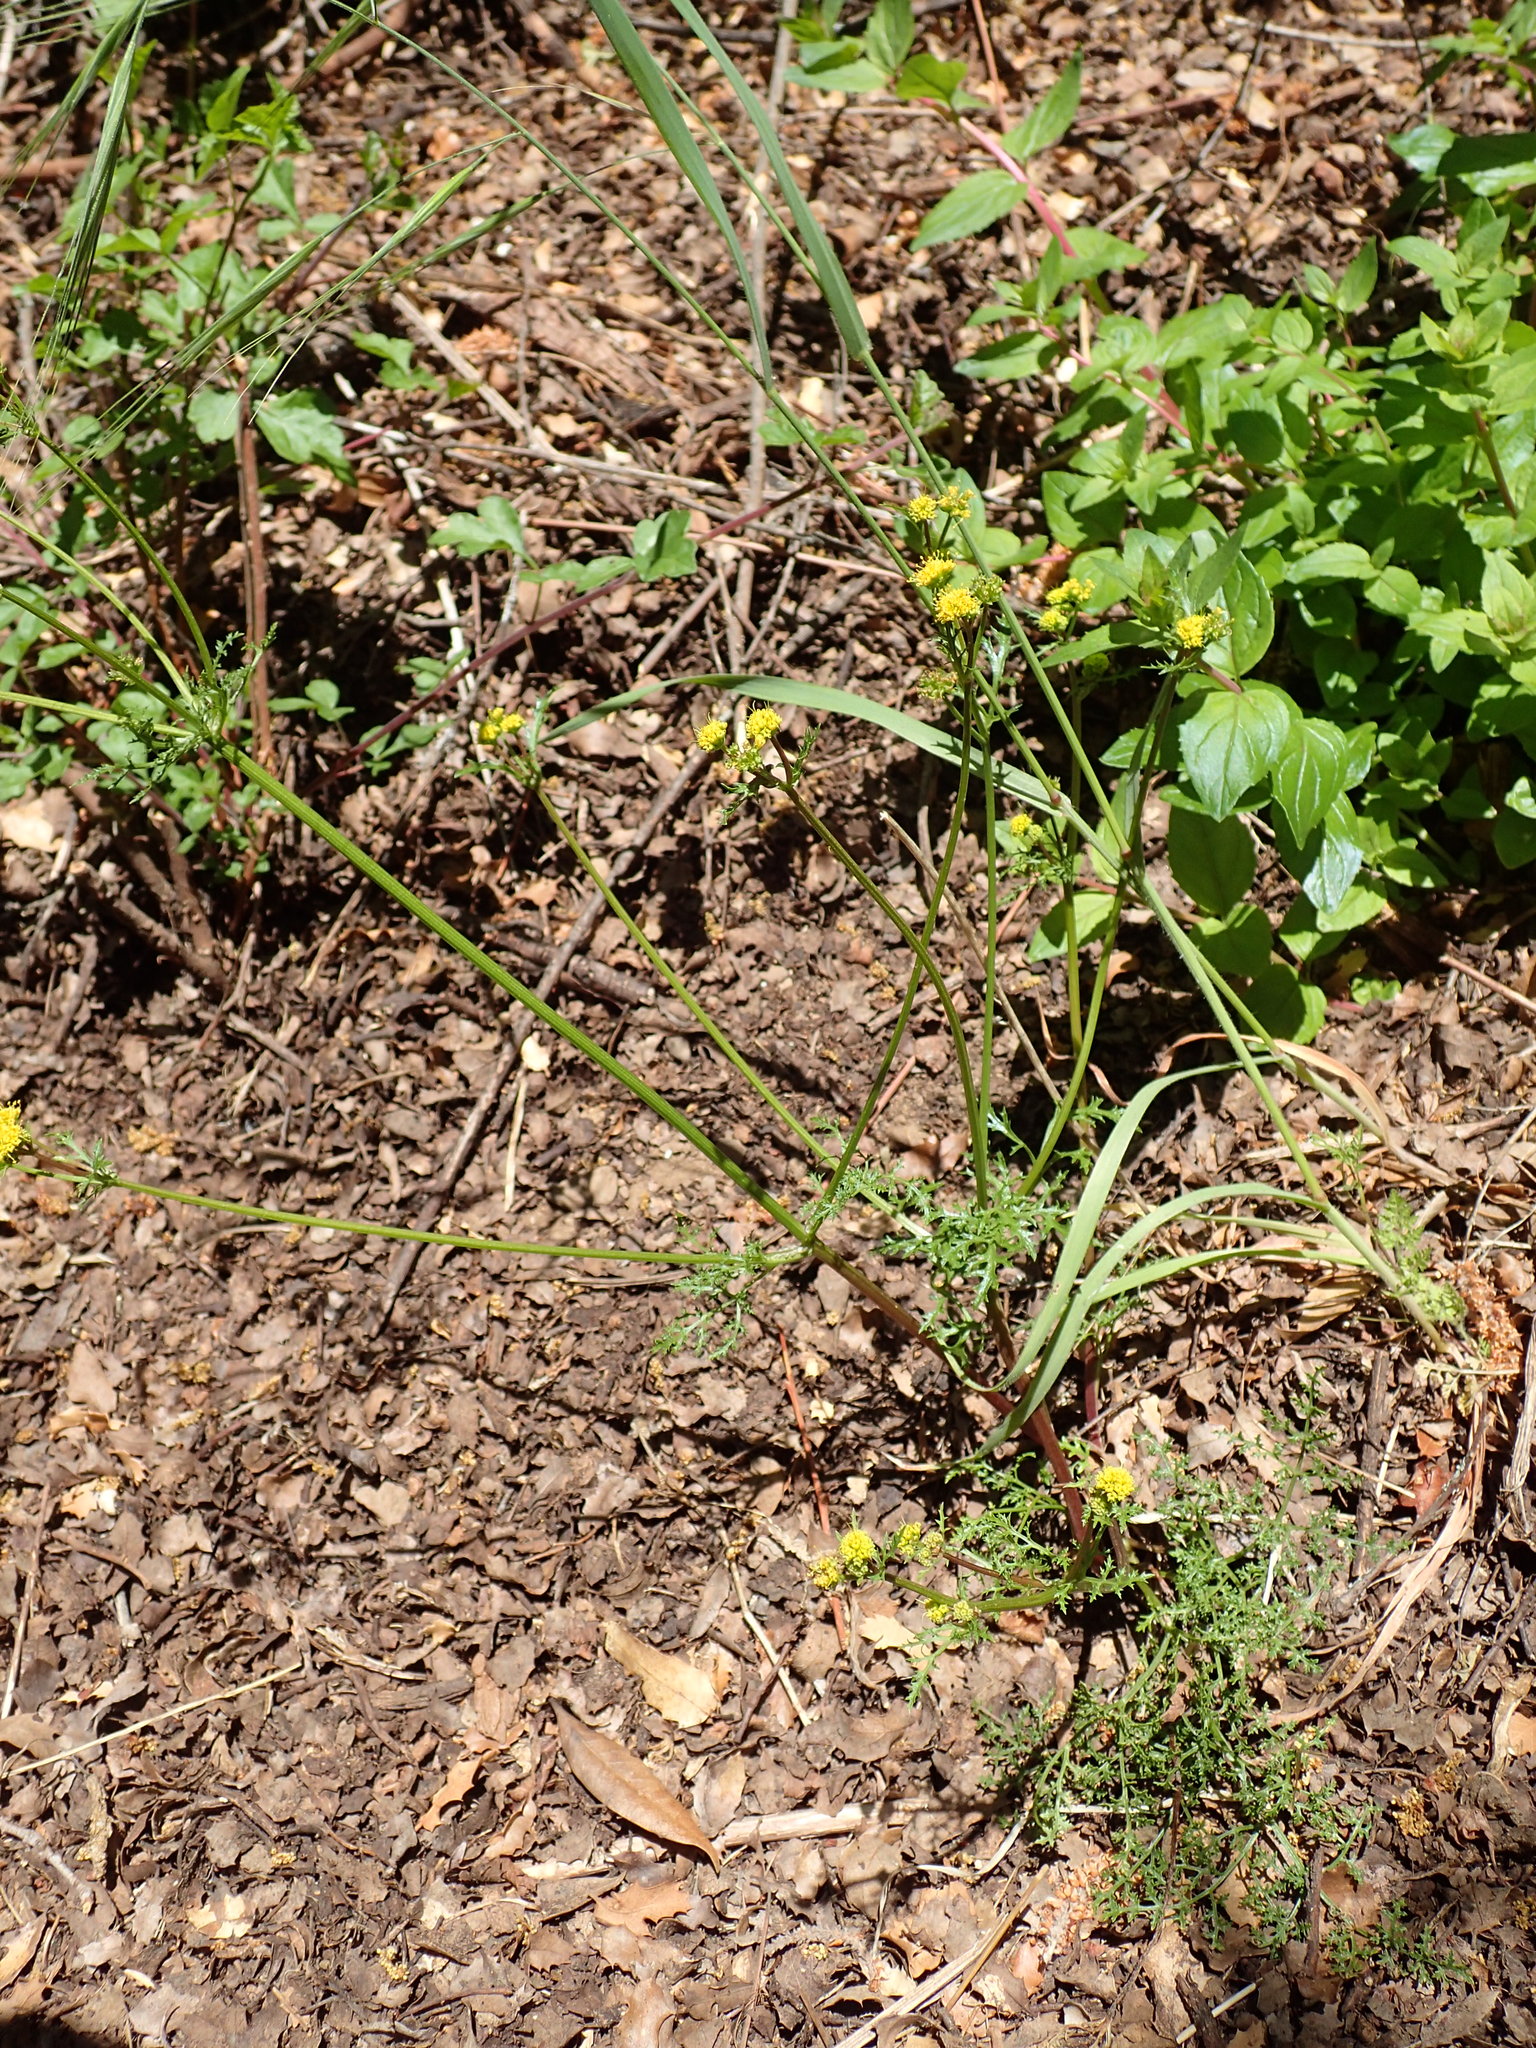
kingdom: Plantae
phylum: Tracheophyta
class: Magnoliopsida
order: Apiales
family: Apiaceae
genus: Sanicula
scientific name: Sanicula tuberosa
